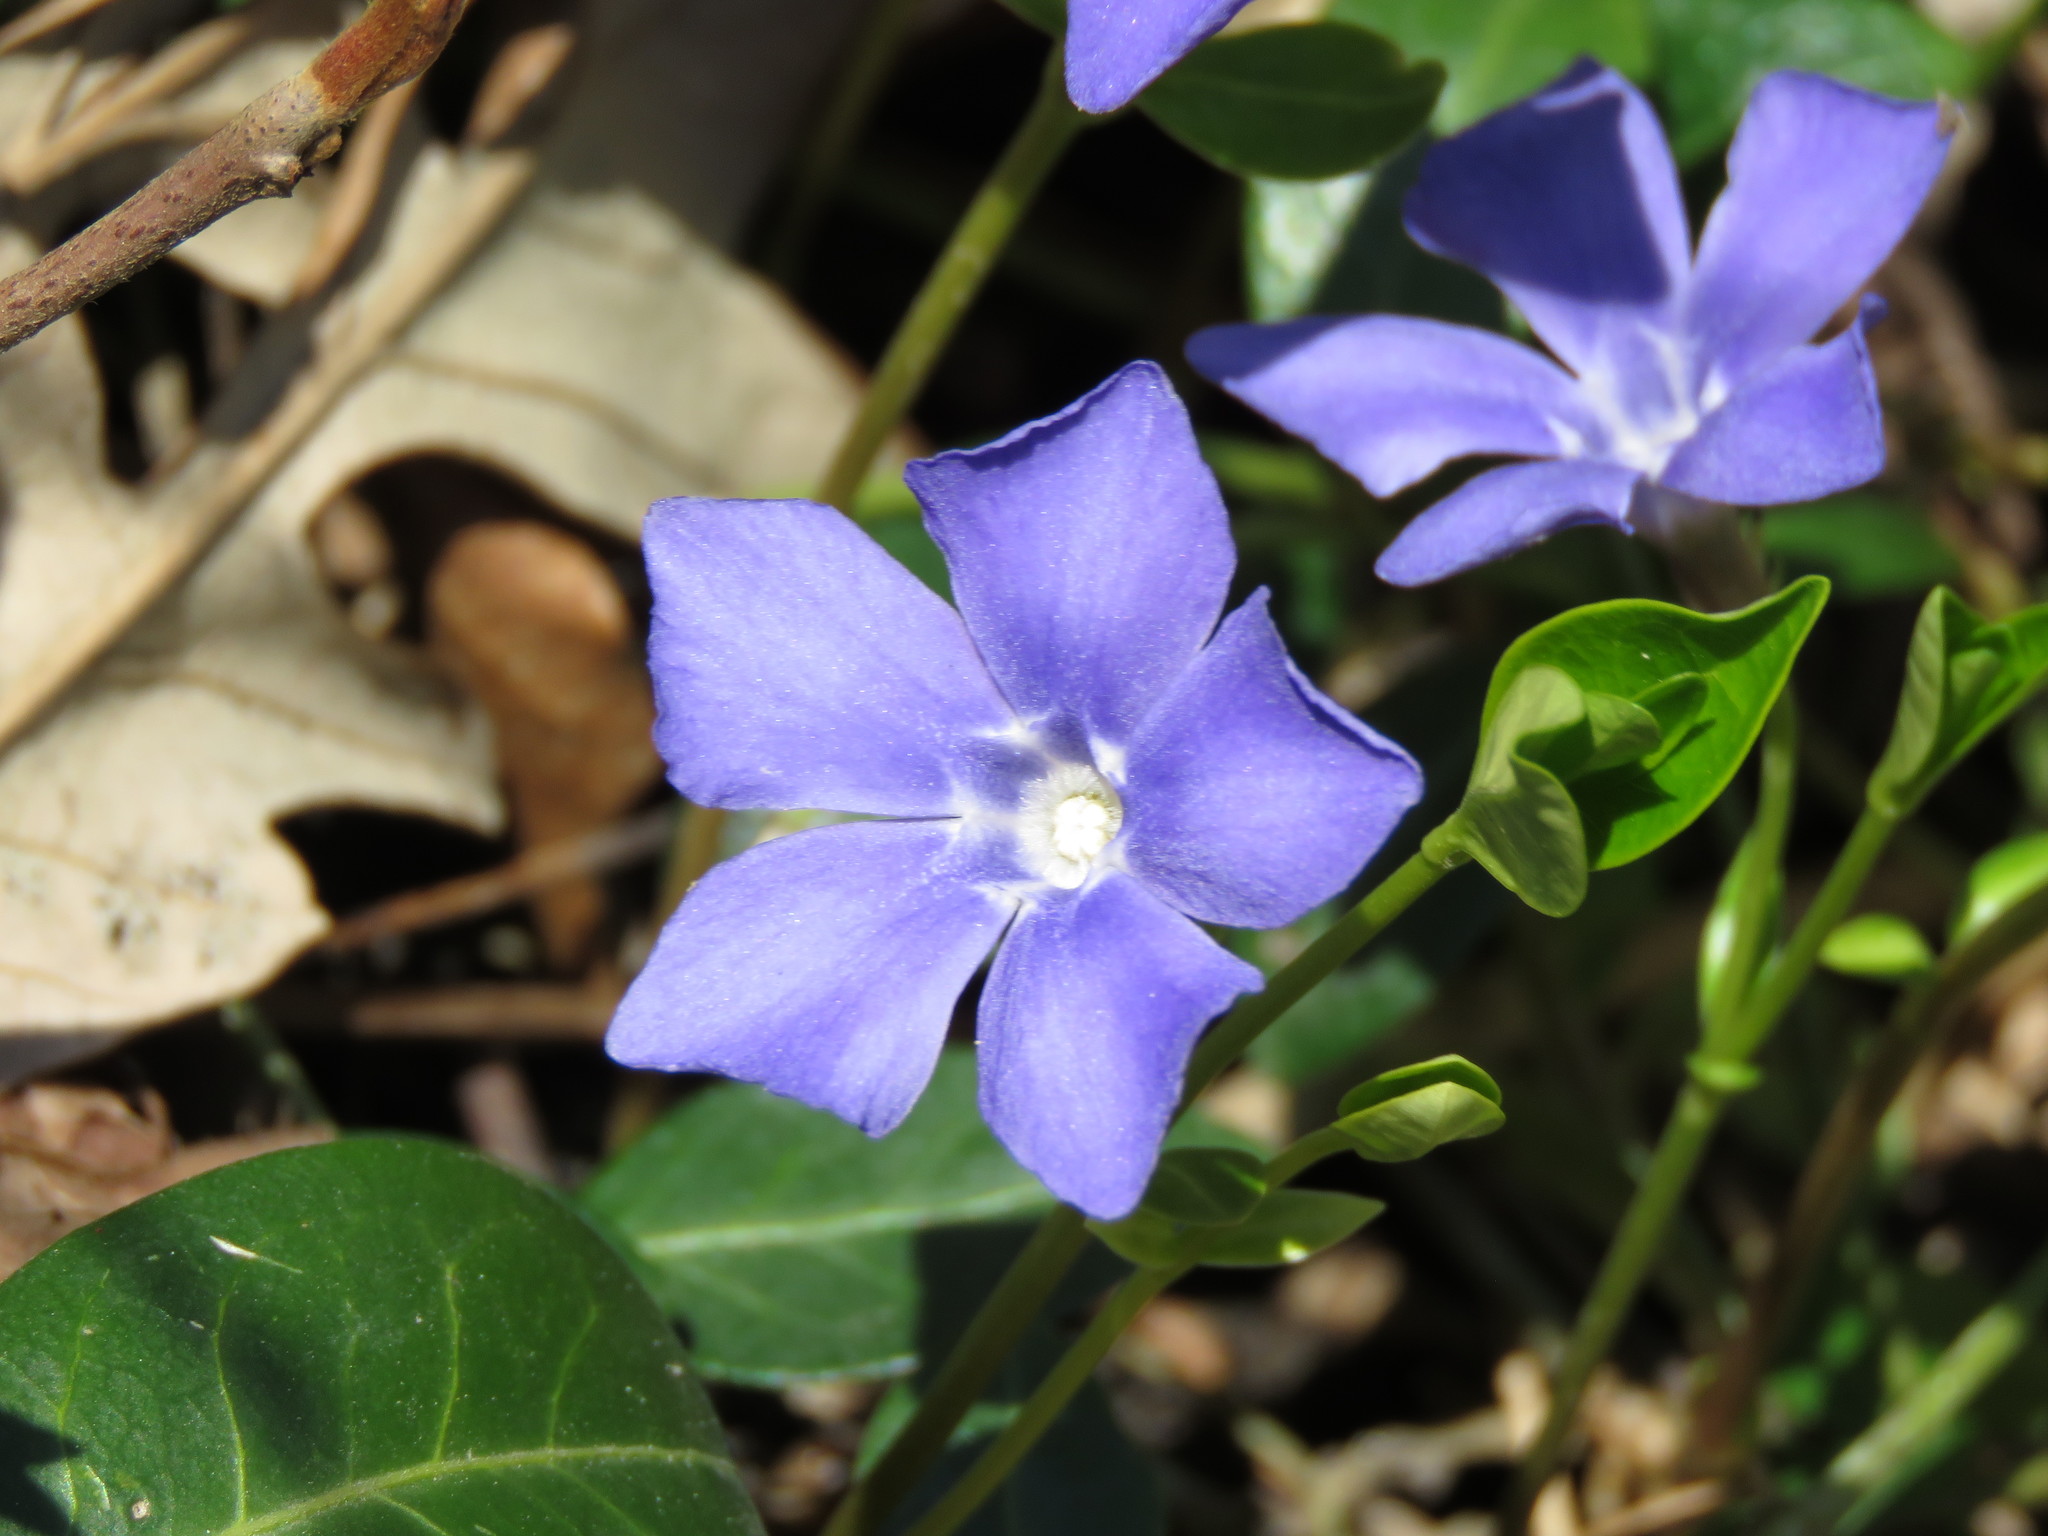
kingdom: Plantae
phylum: Tracheophyta
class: Magnoliopsida
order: Gentianales
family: Apocynaceae
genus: Vinca
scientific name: Vinca minor
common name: Lesser periwinkle
